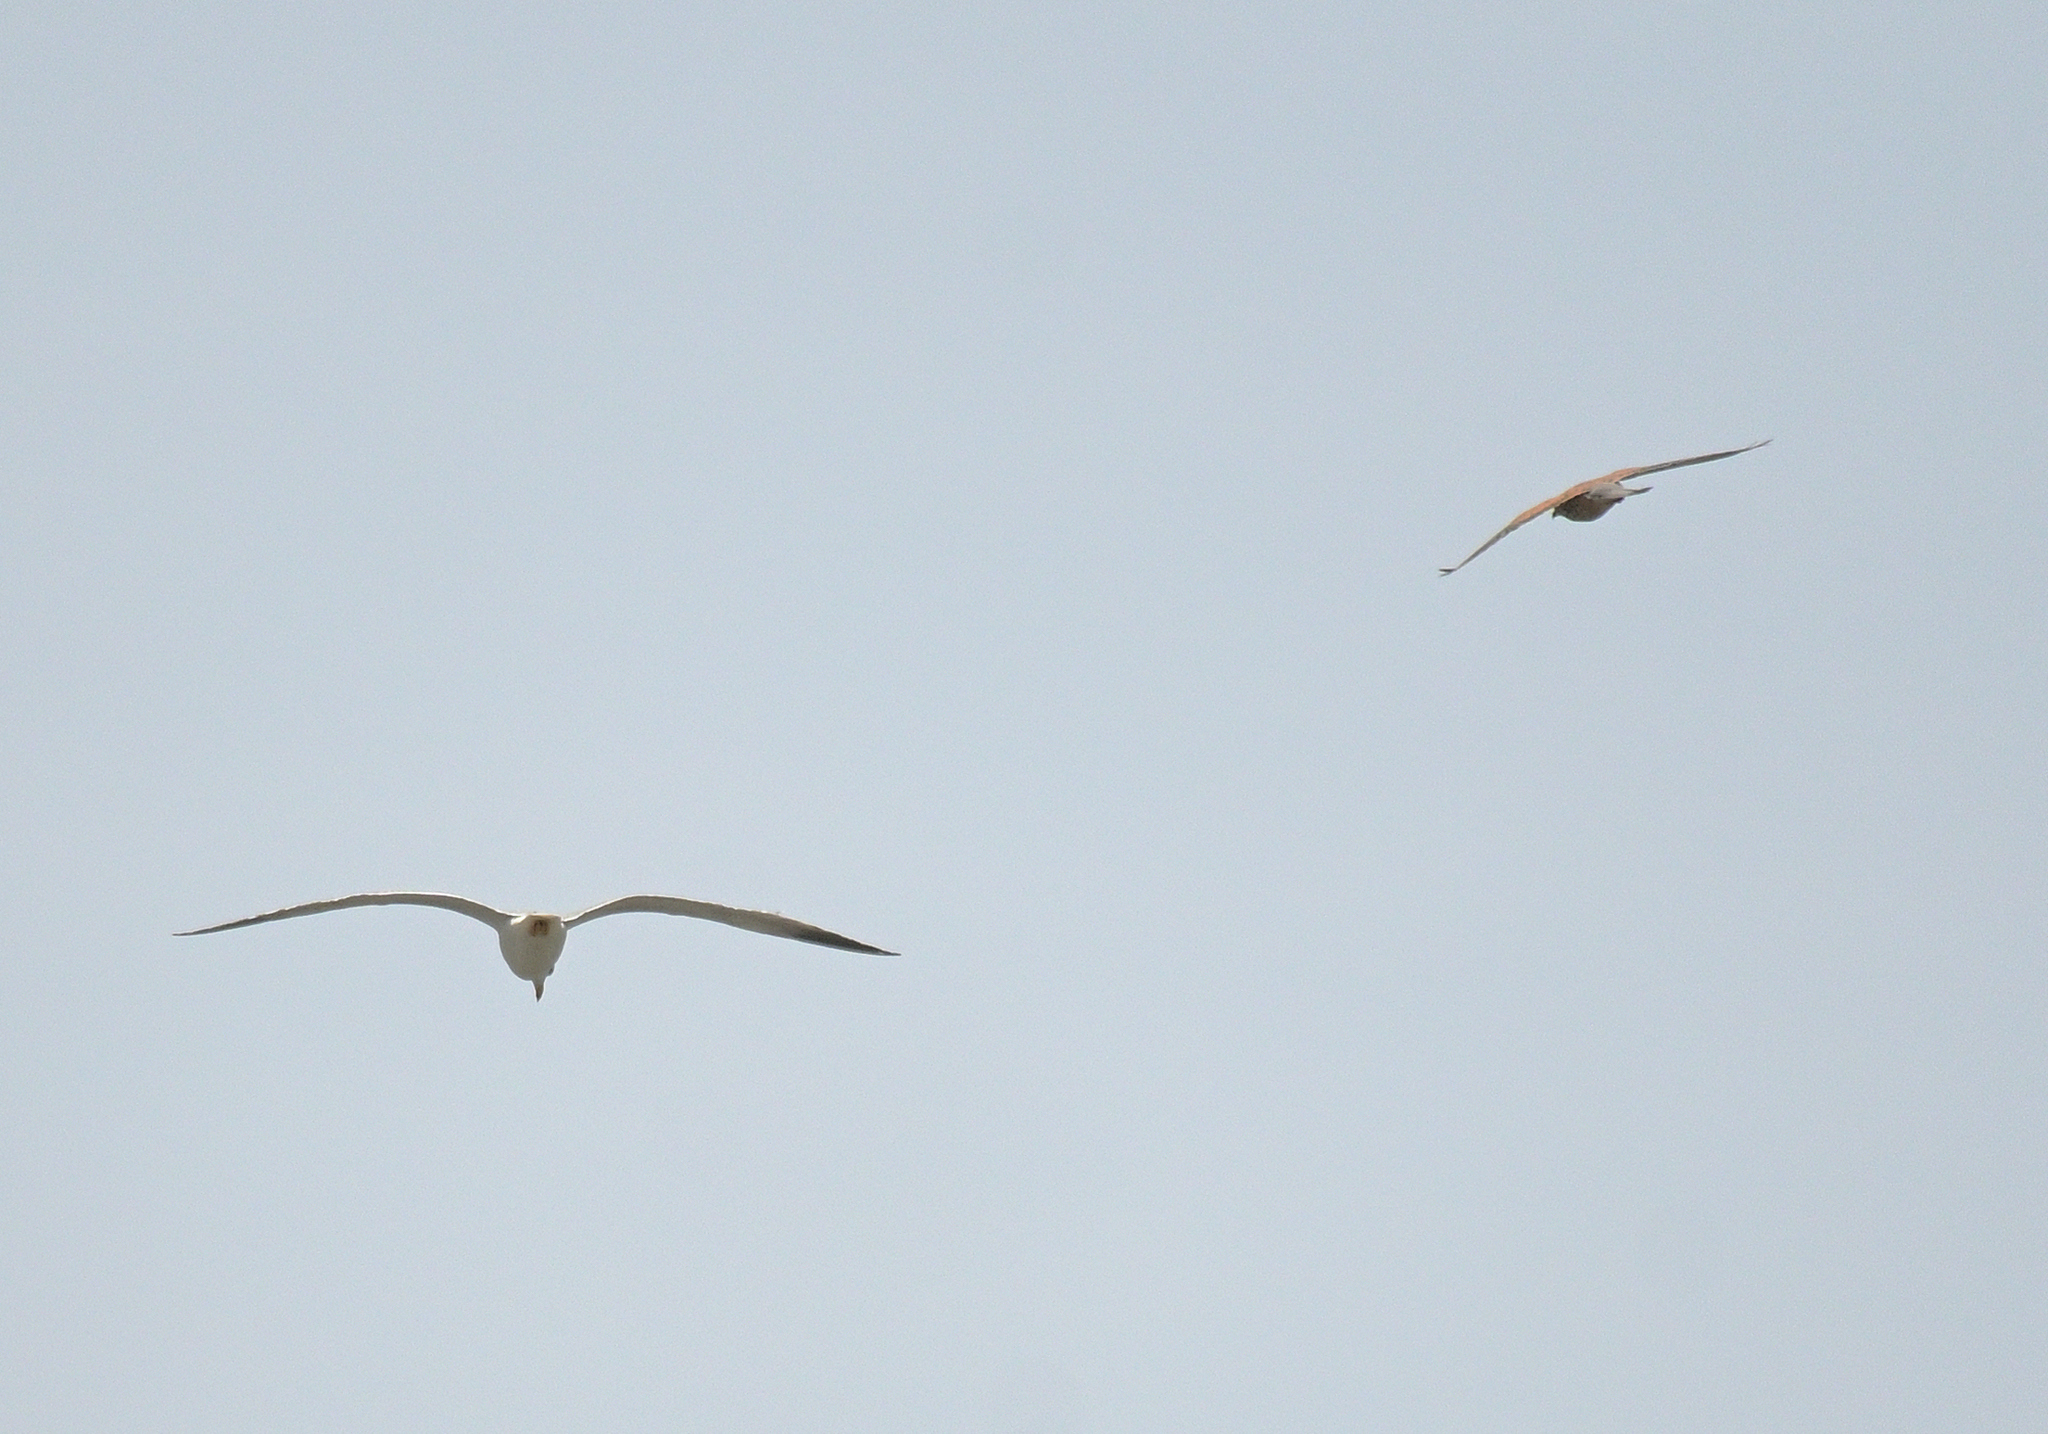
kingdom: Animalia
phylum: Chordata
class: Aves
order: Falconiformes
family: Falconidae
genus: Falco
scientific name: Falco tinnunculus
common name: Common kestrel
